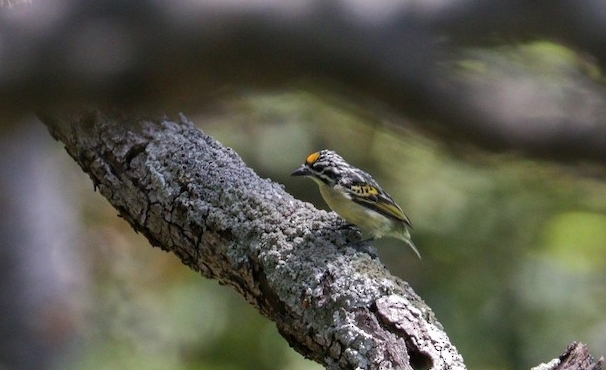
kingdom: Animalia
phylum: Chordata
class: Aves
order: Piciformes
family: Lybiidae
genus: Pogoniulus
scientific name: Pogoniulus chrysoconus
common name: Yellow-fronted tinkerbird
